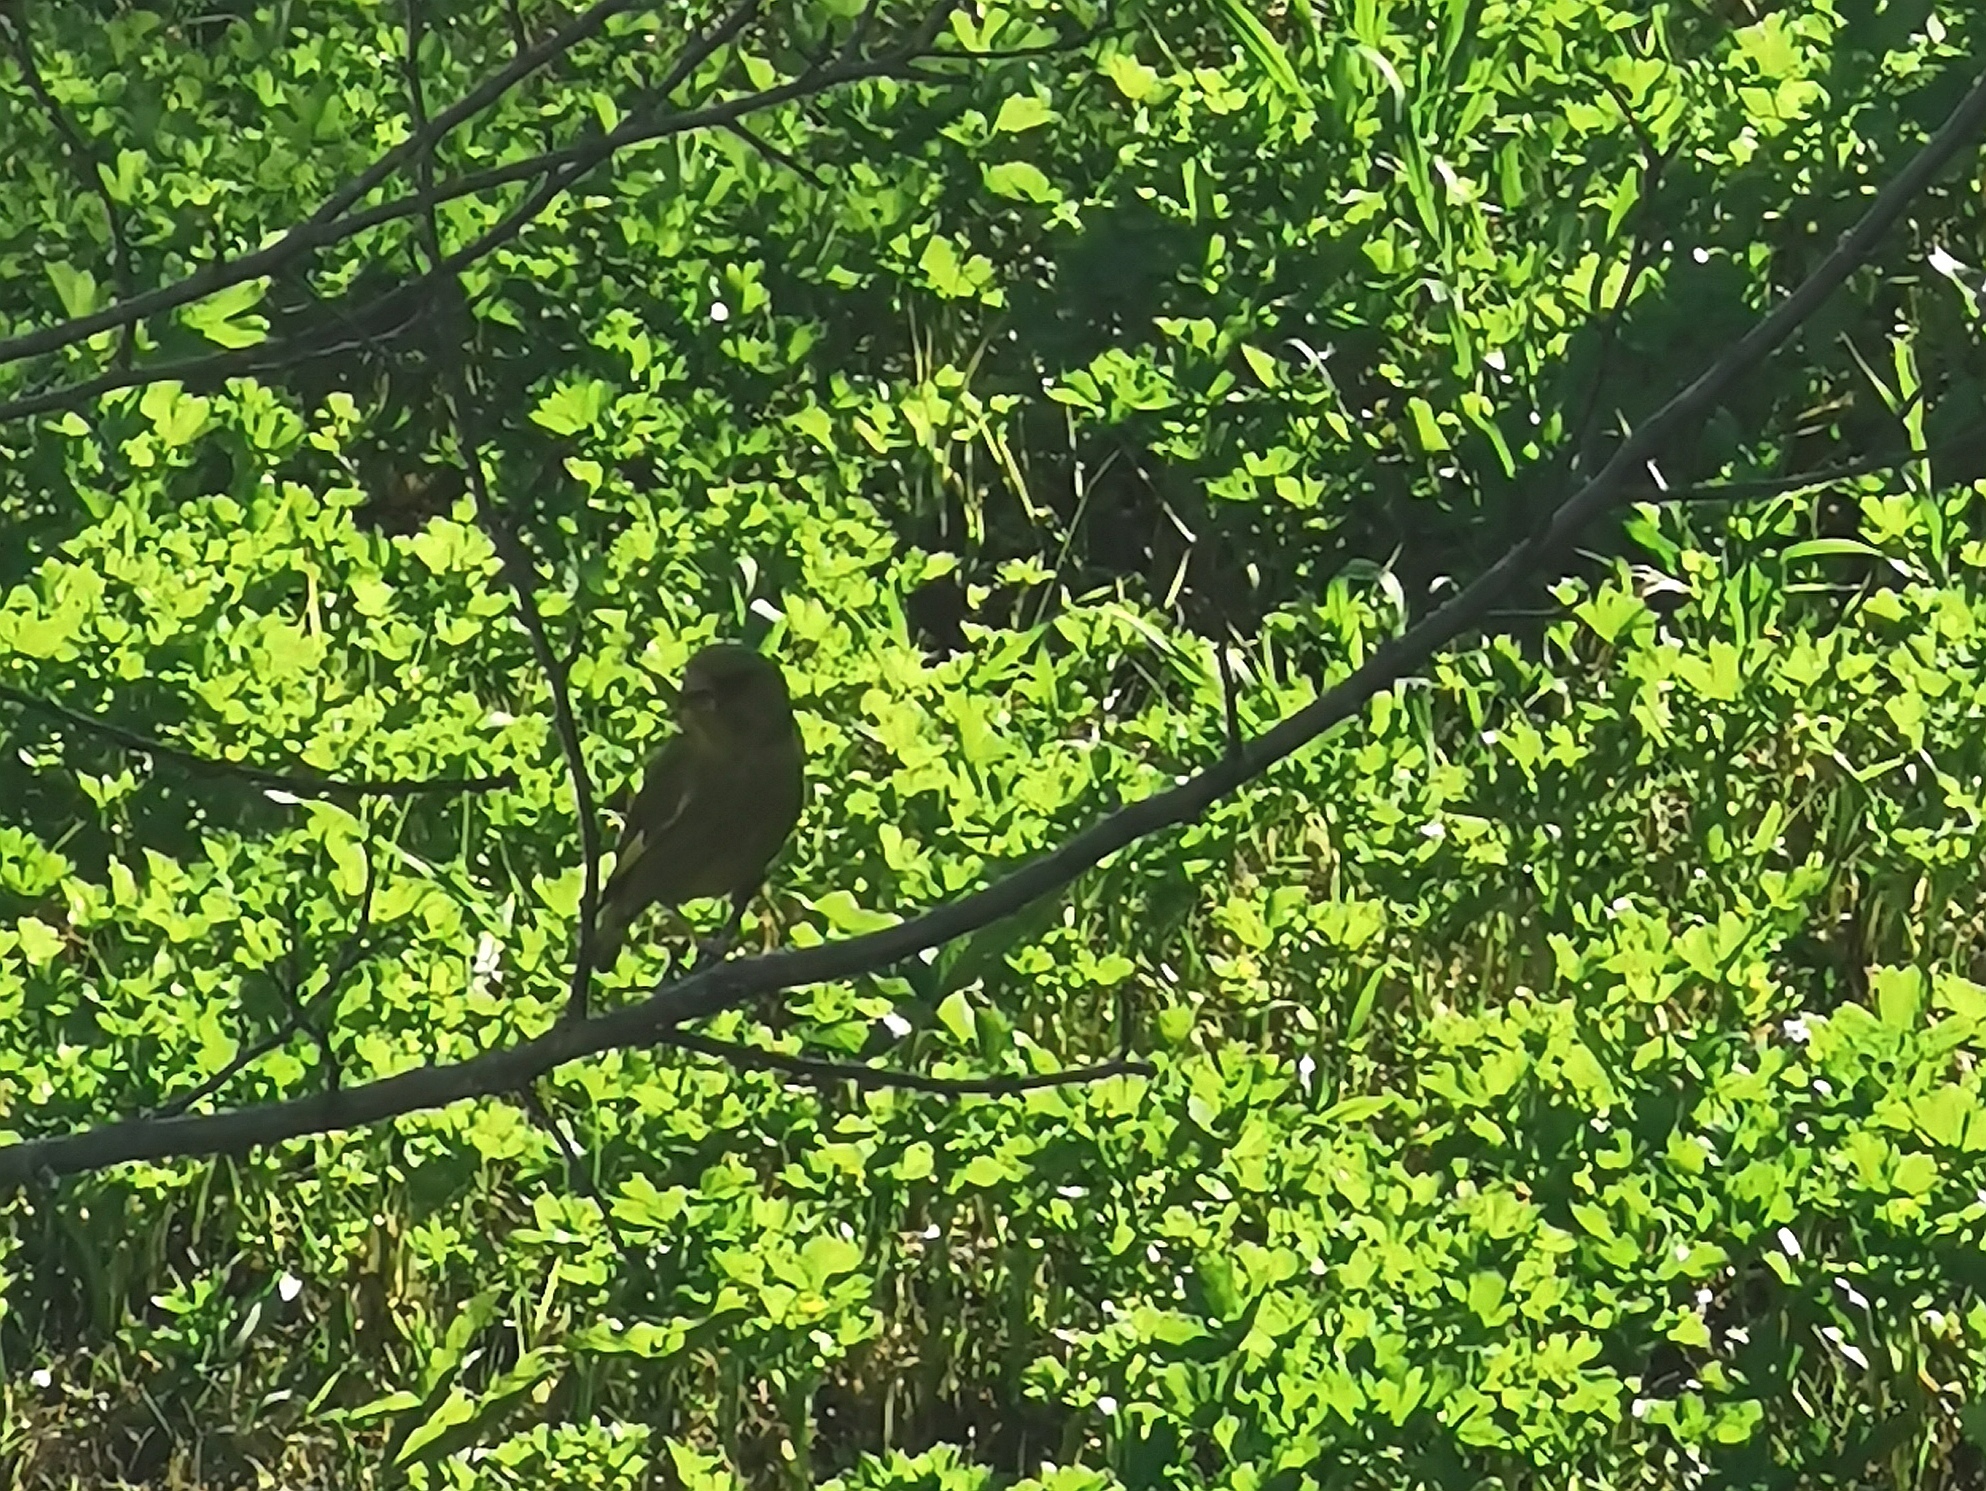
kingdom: Plantae
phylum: Tracheophyta
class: Liliopsida
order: Poales
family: Poaceae
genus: Chloris
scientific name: Chloris chloris
